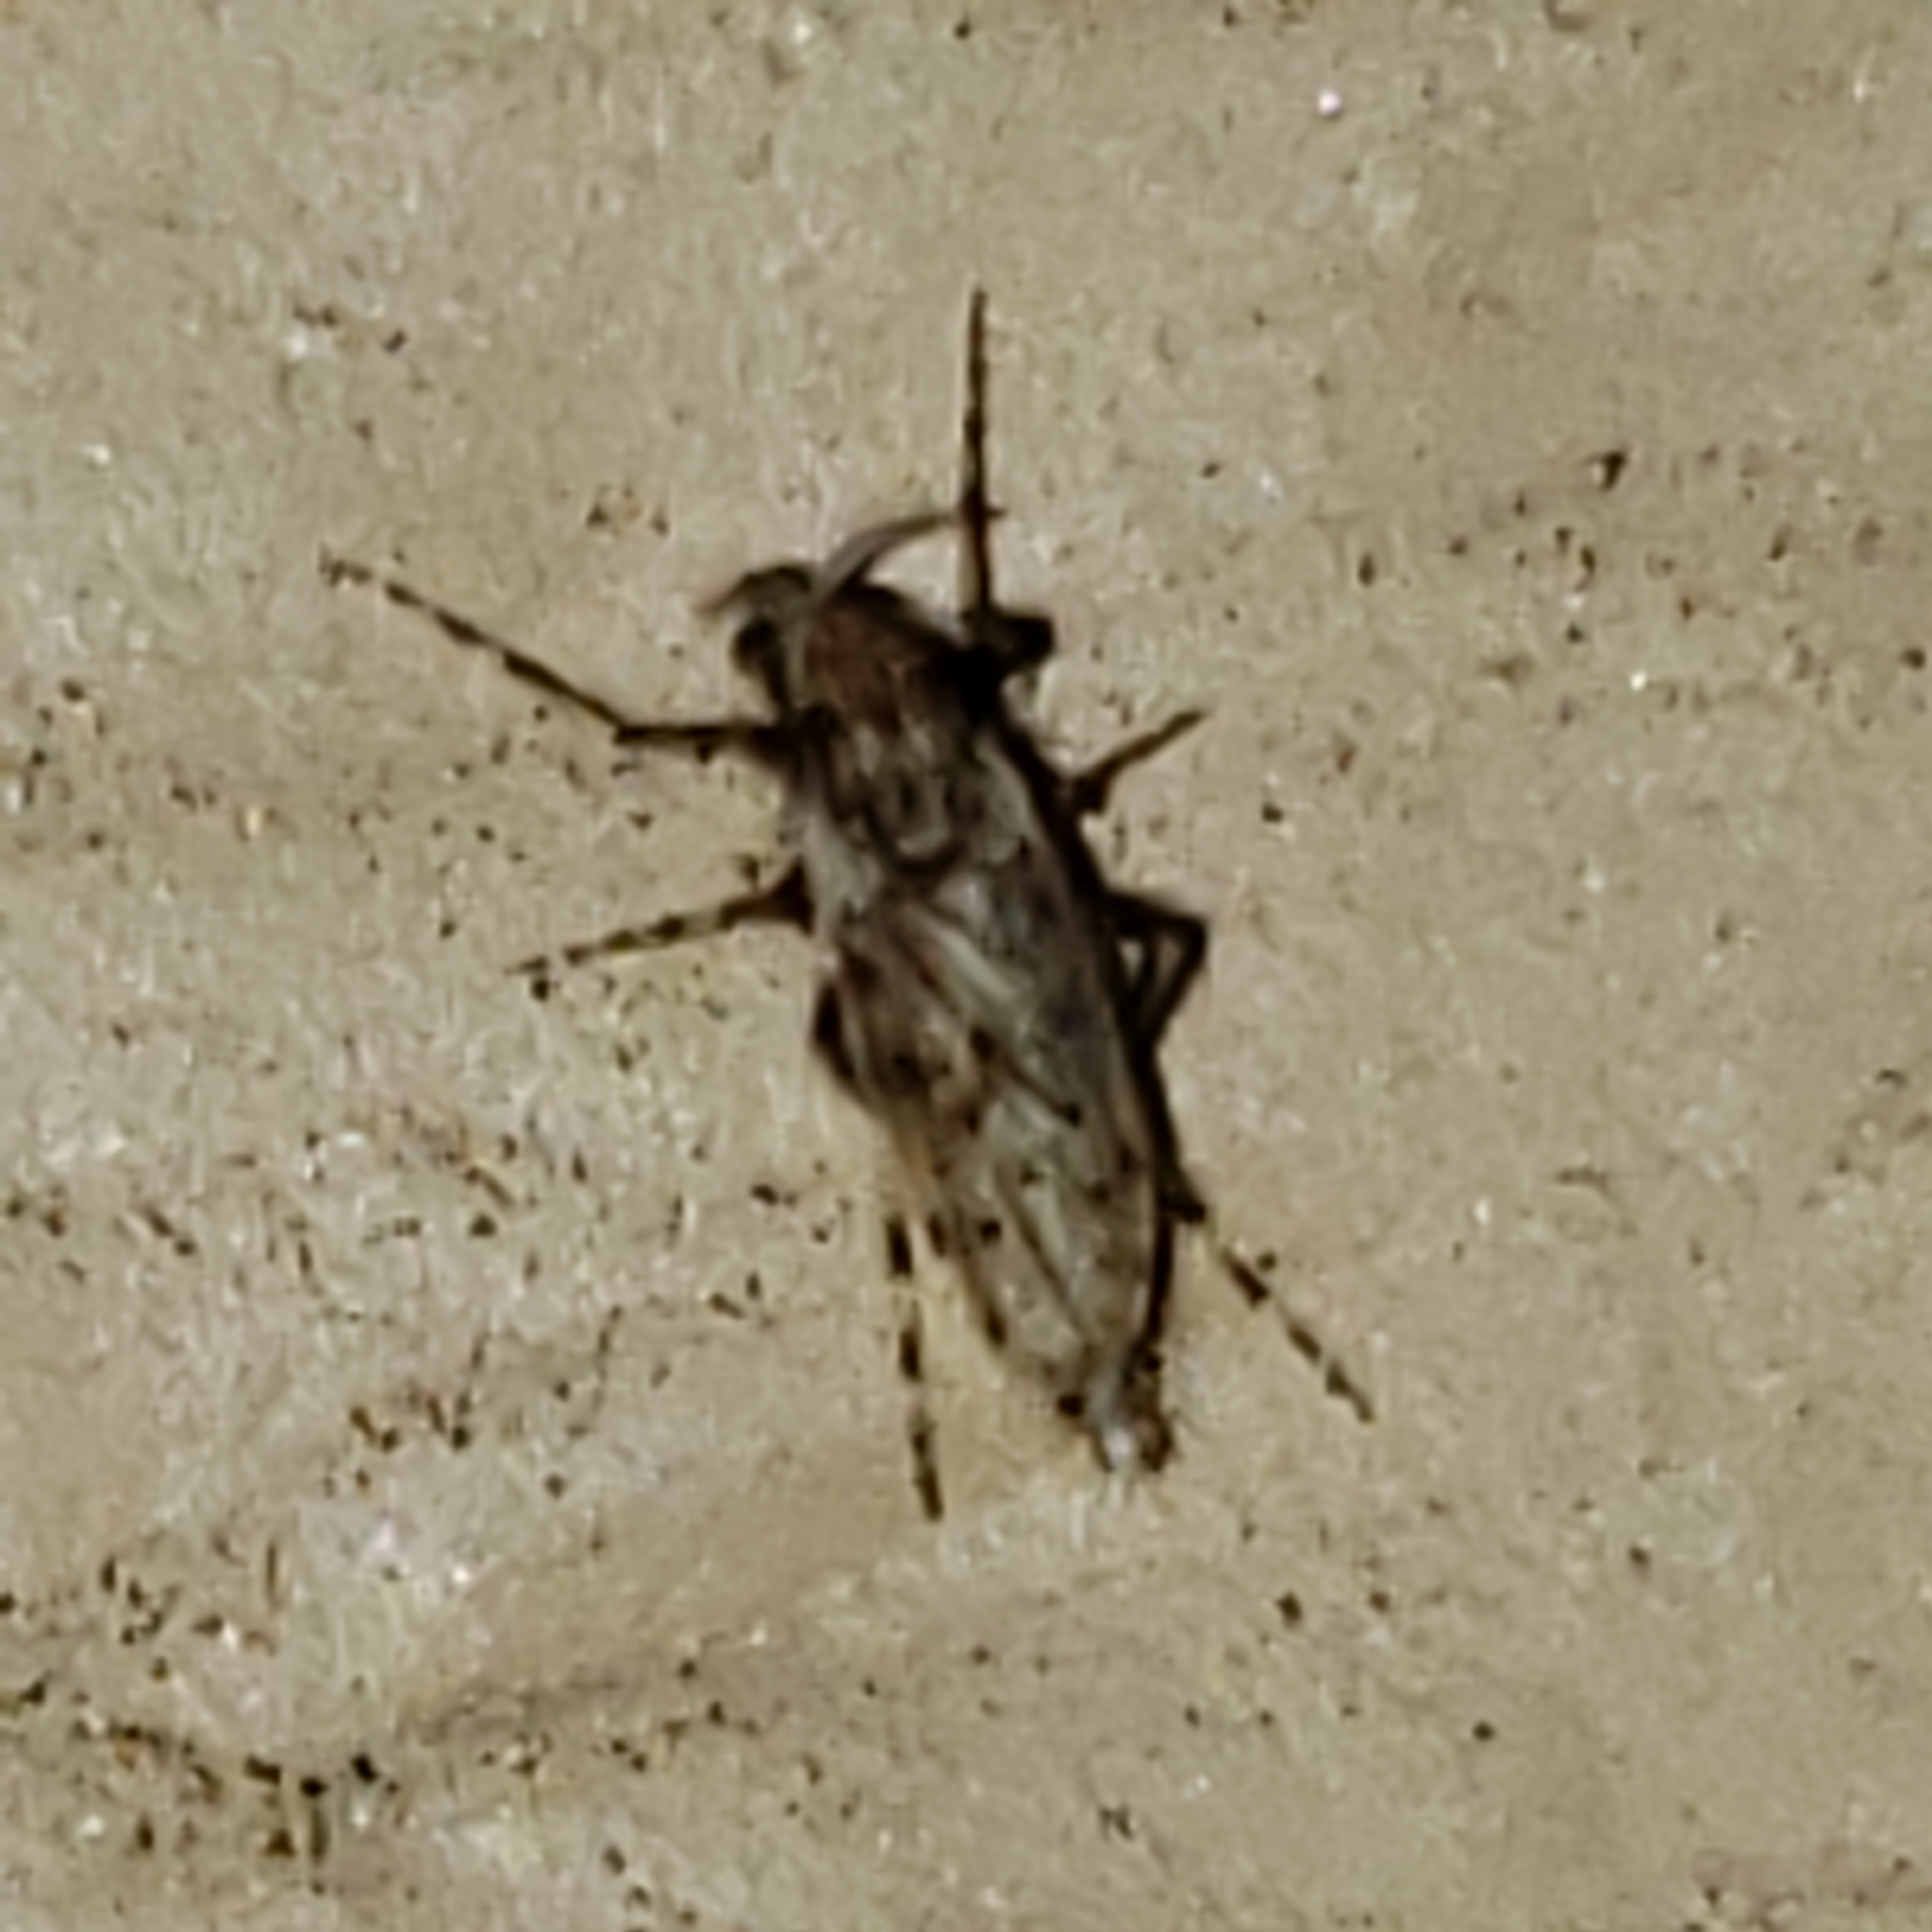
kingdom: Animalia
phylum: Arthropoda
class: Insecta
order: Diptera
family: Chaoboridae
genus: Chaoborus
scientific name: Chaoborus punctipennis
